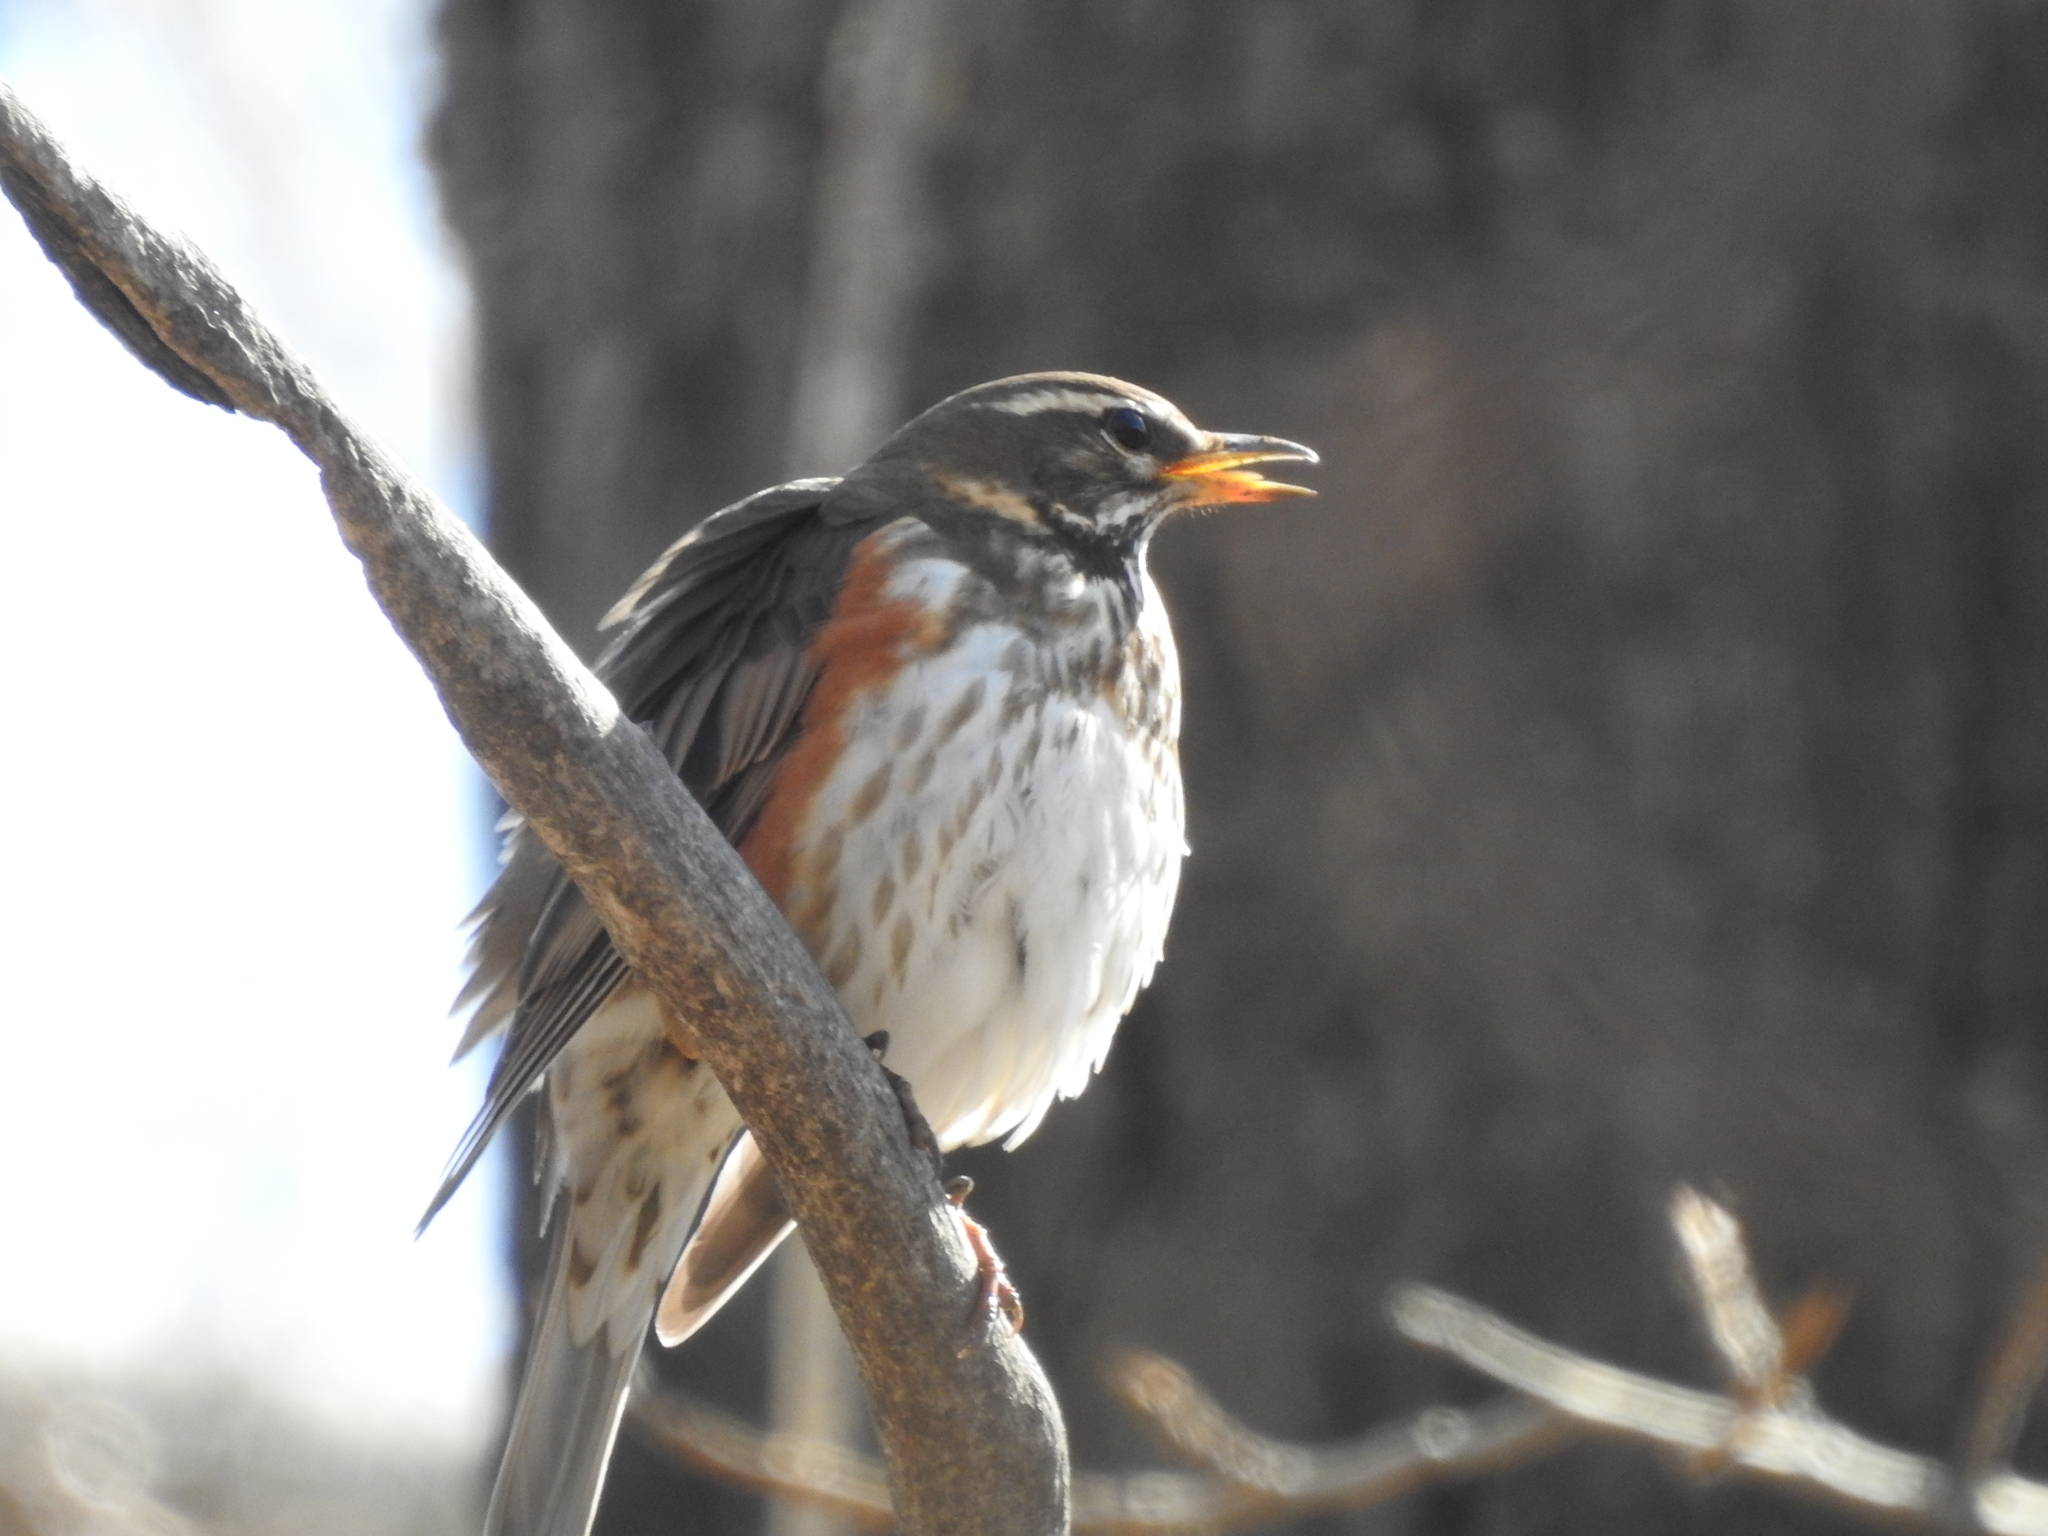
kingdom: Animalia
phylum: Chordata
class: Aves
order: Passeriformes
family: Turdidae
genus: Turdus
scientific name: Turdus iliacus
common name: Redwing
